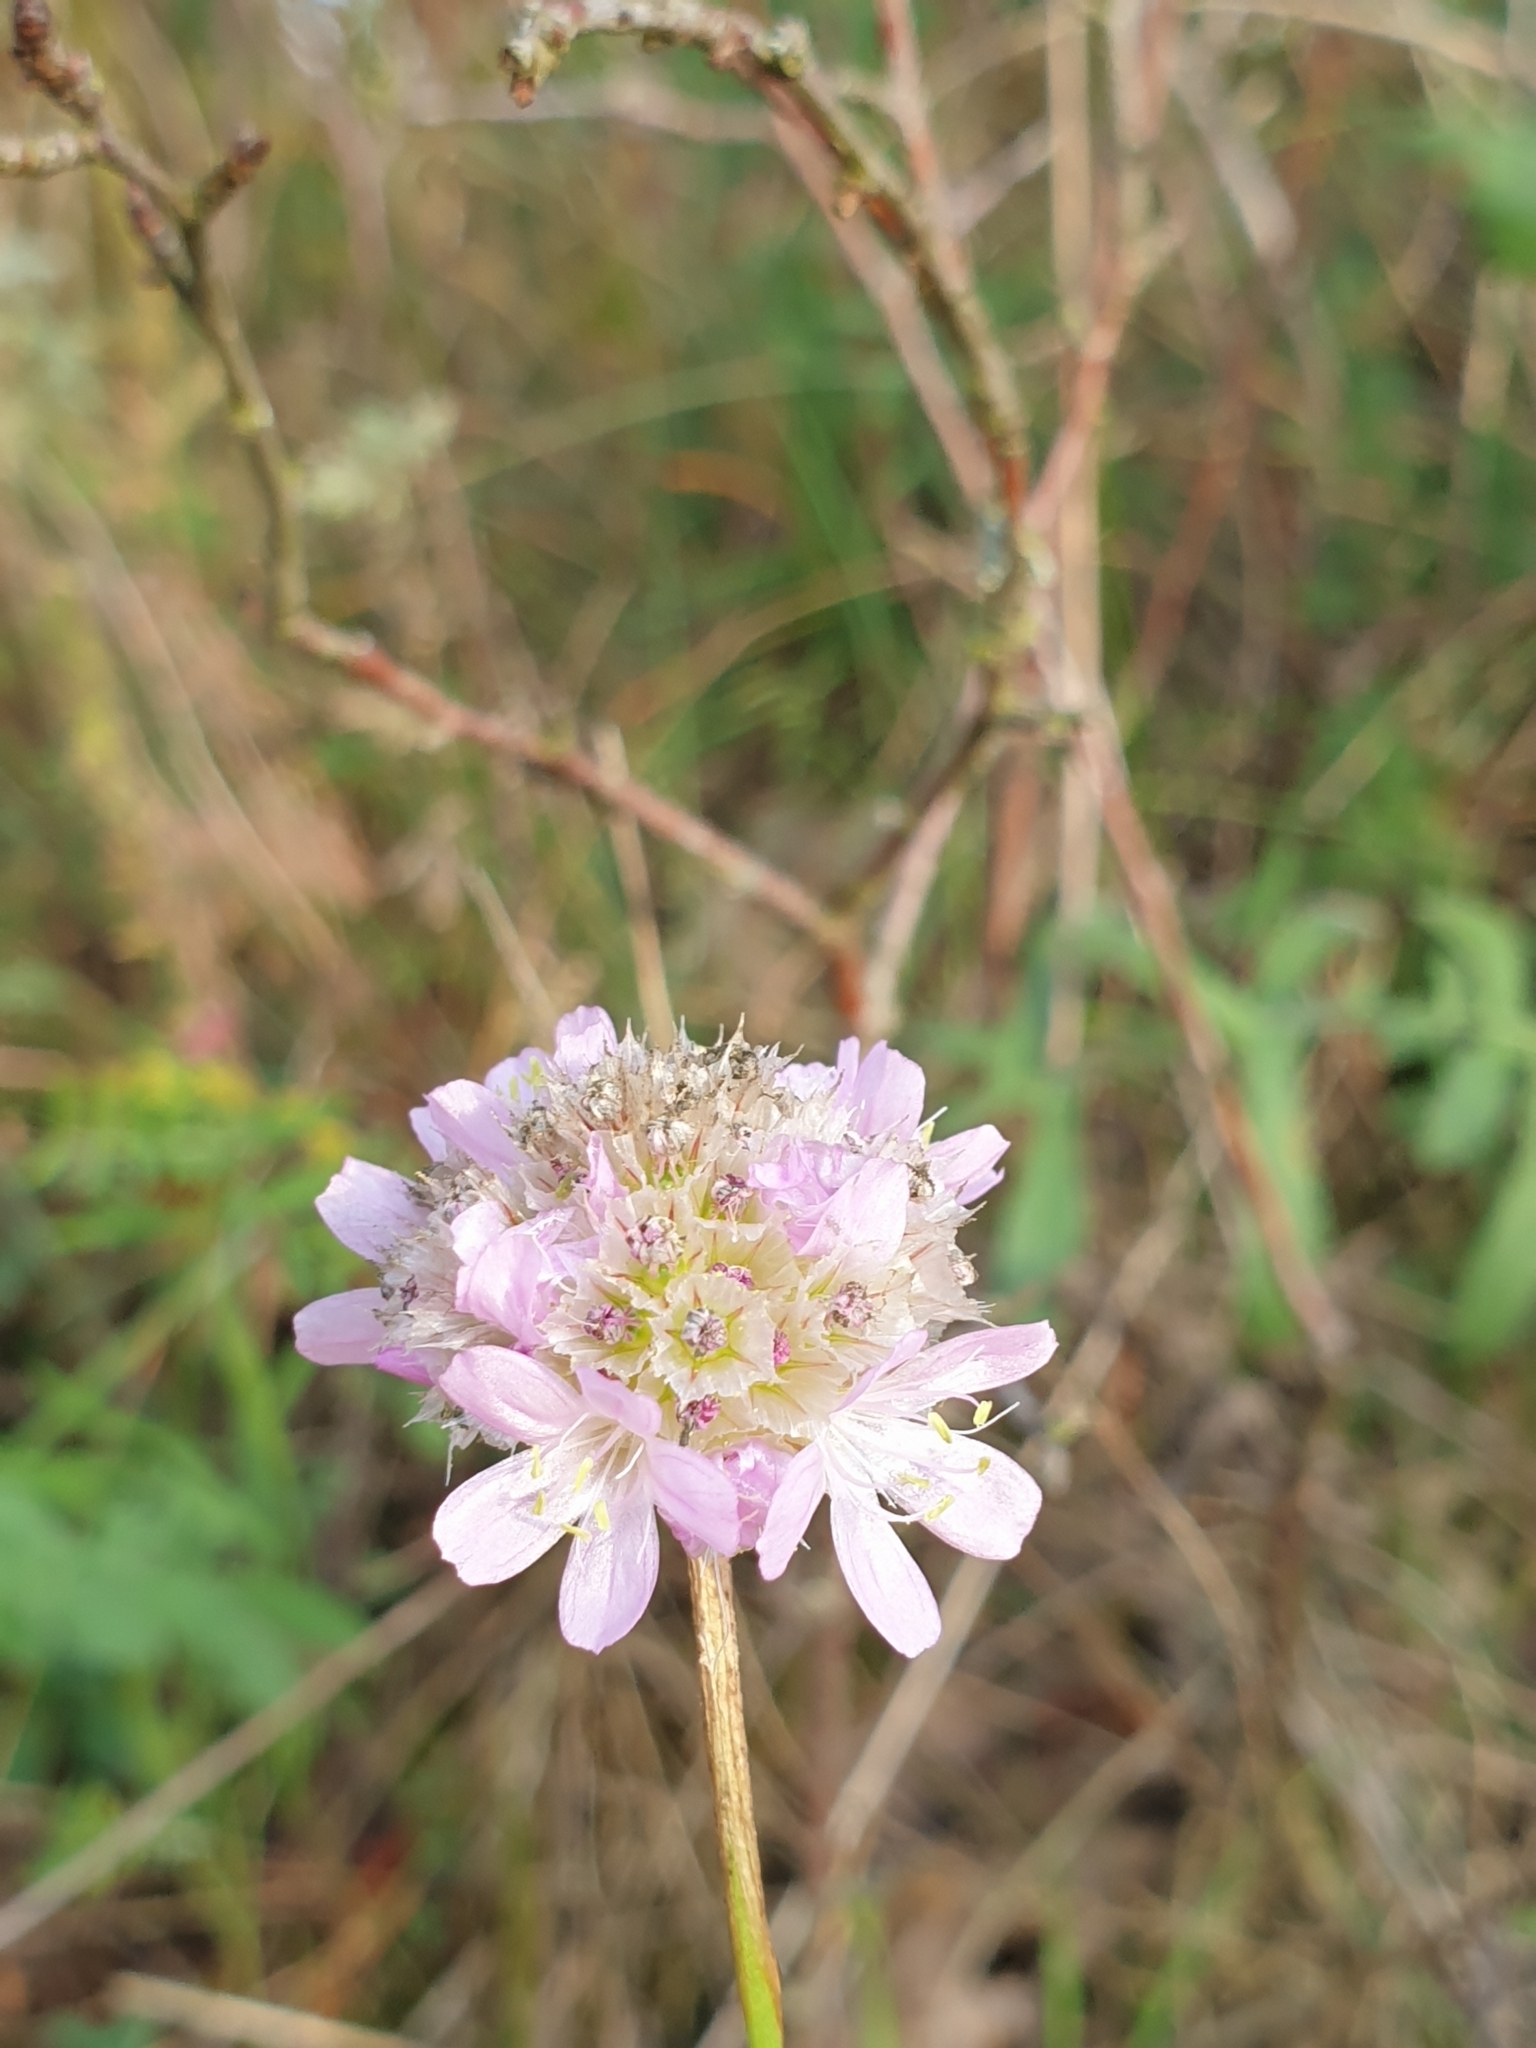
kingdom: Plantae
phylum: Tracheophyta
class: Magnoliopsida
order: Caryophyllales
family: Plumbaginaceae
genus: Armeria
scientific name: Armeria maritima
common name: Thrift
